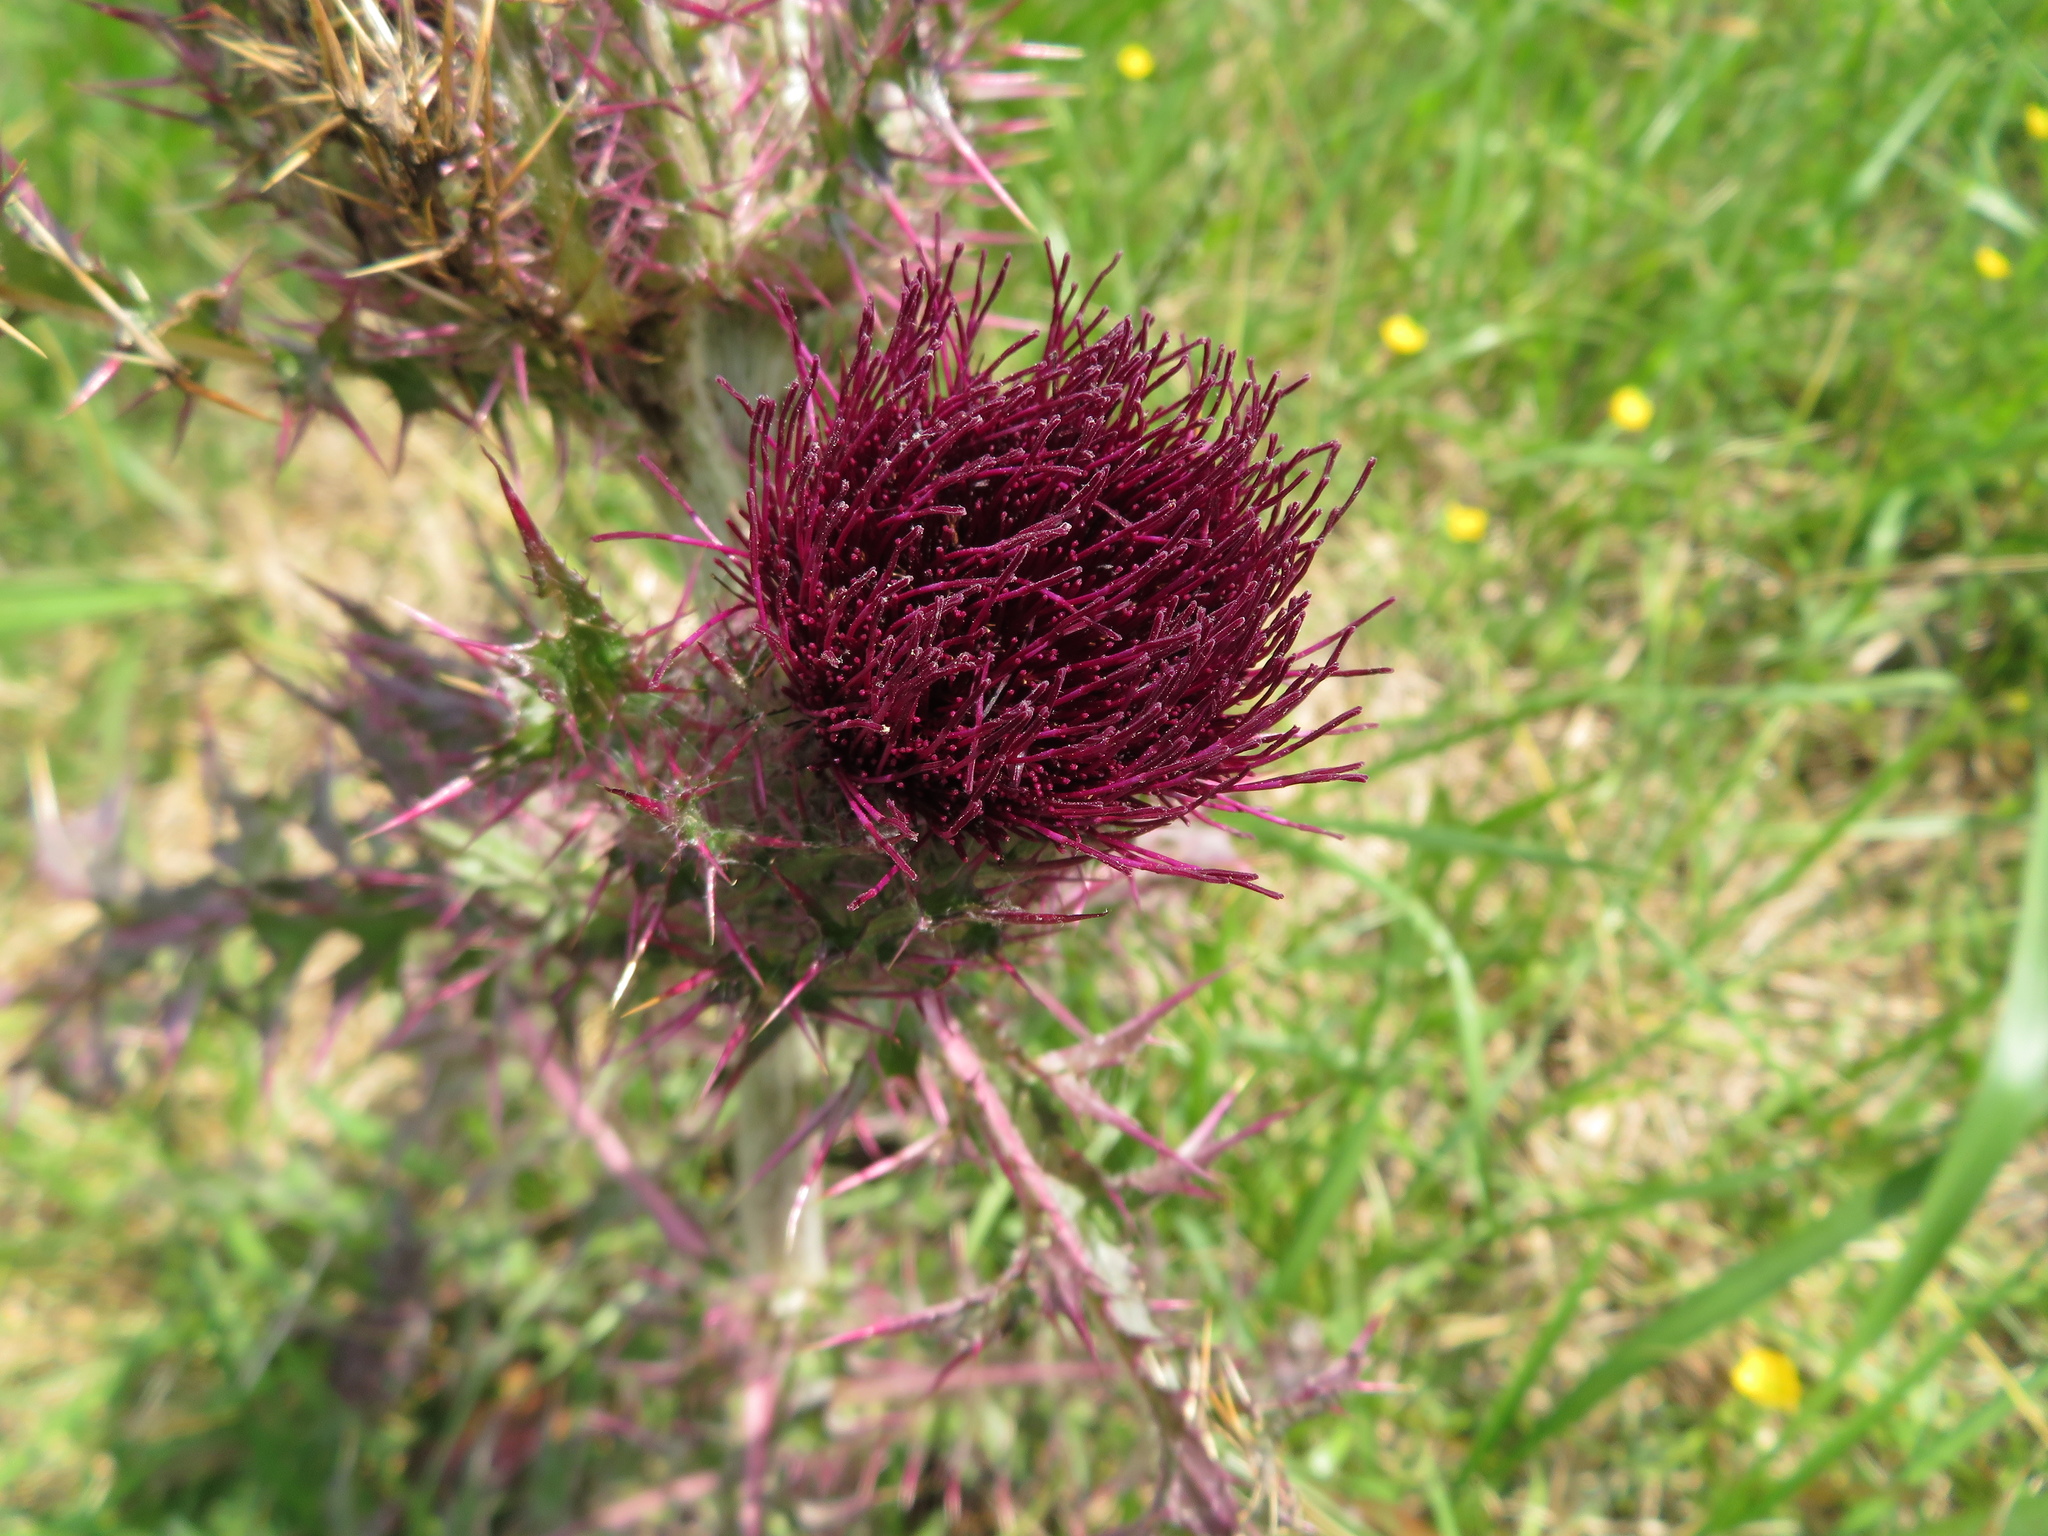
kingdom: Plantae
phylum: Tracheophyta
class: Magnoliopsida
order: Asterales
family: Asteraceae
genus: Cirsium
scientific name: Cirsium horridulum
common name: Bristly thistle
